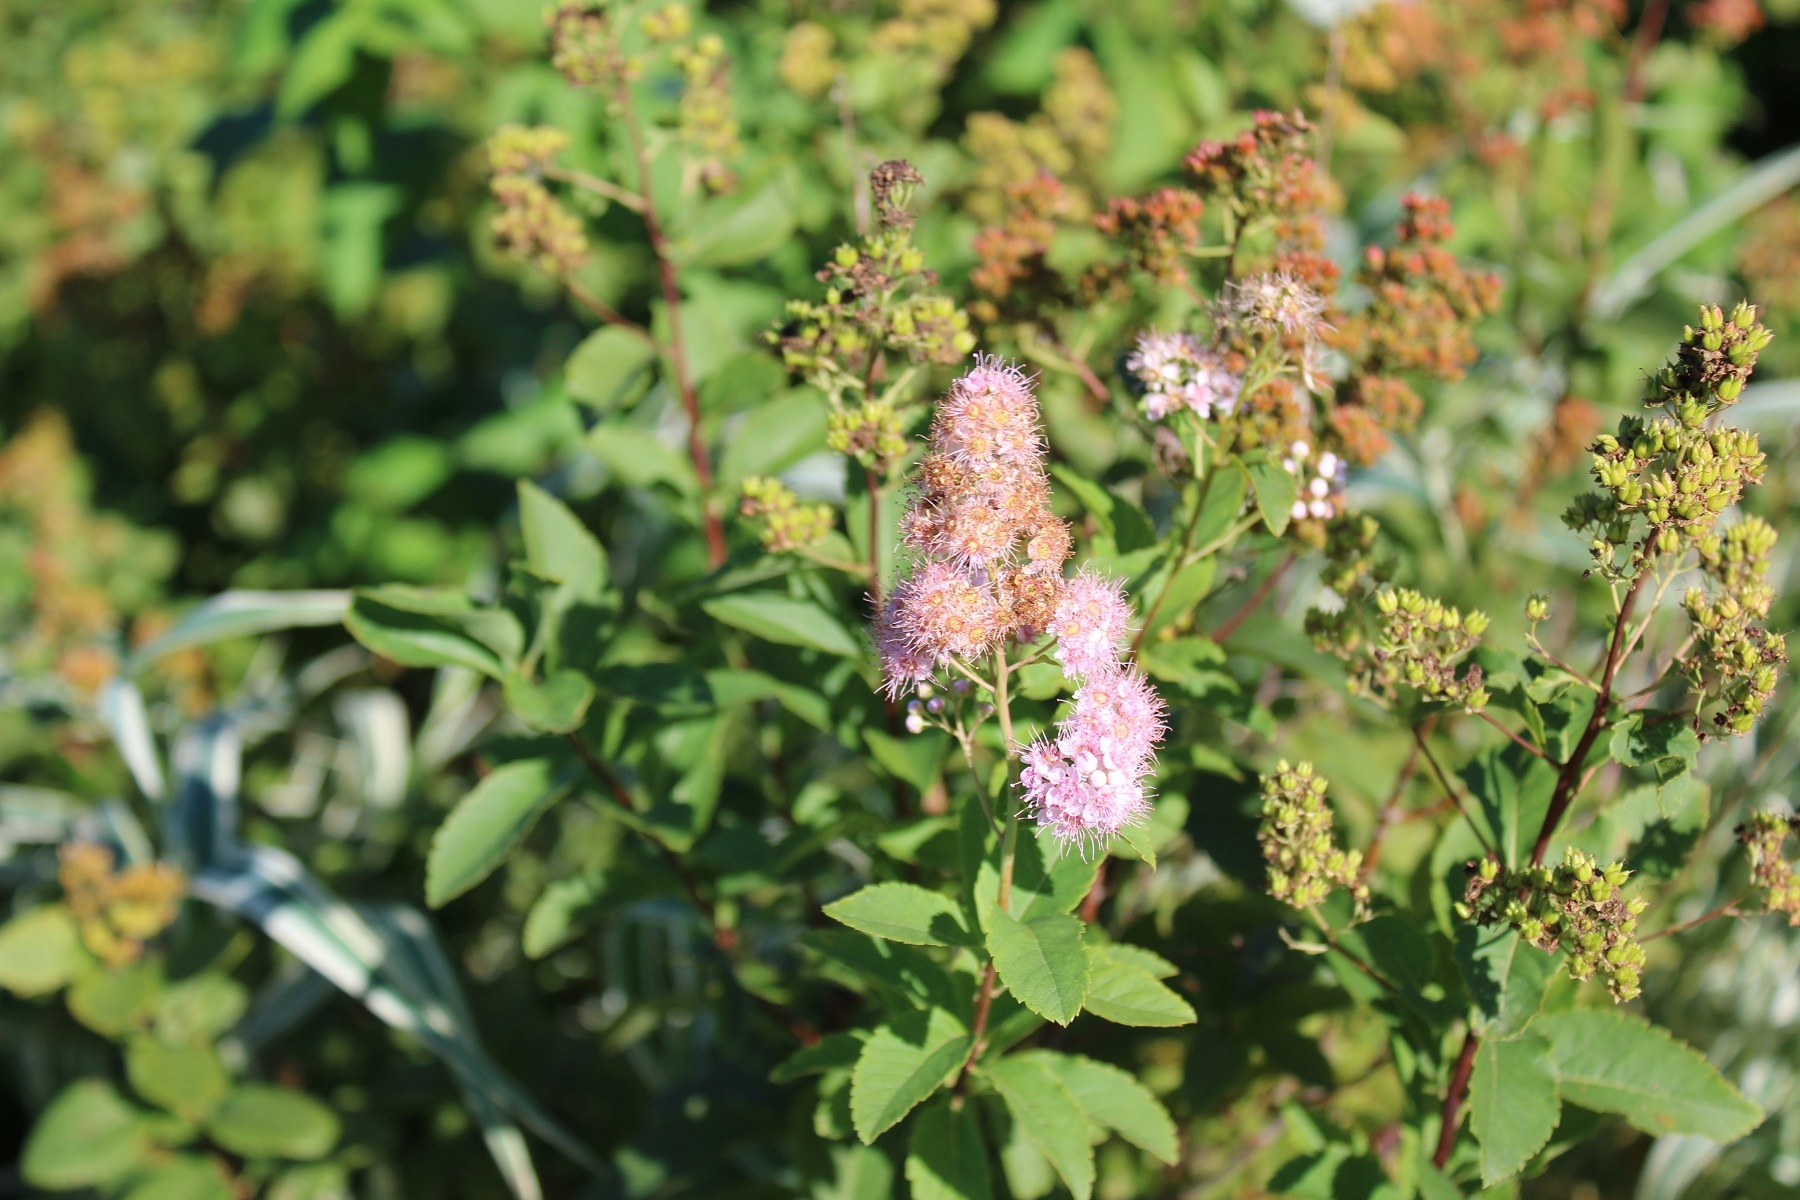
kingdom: Plantae
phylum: Tracheophyta
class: Magnoliopsida
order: Rosales
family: Rosaceae
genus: Spiraea
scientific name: Spiraea alba
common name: Pale bridewort
